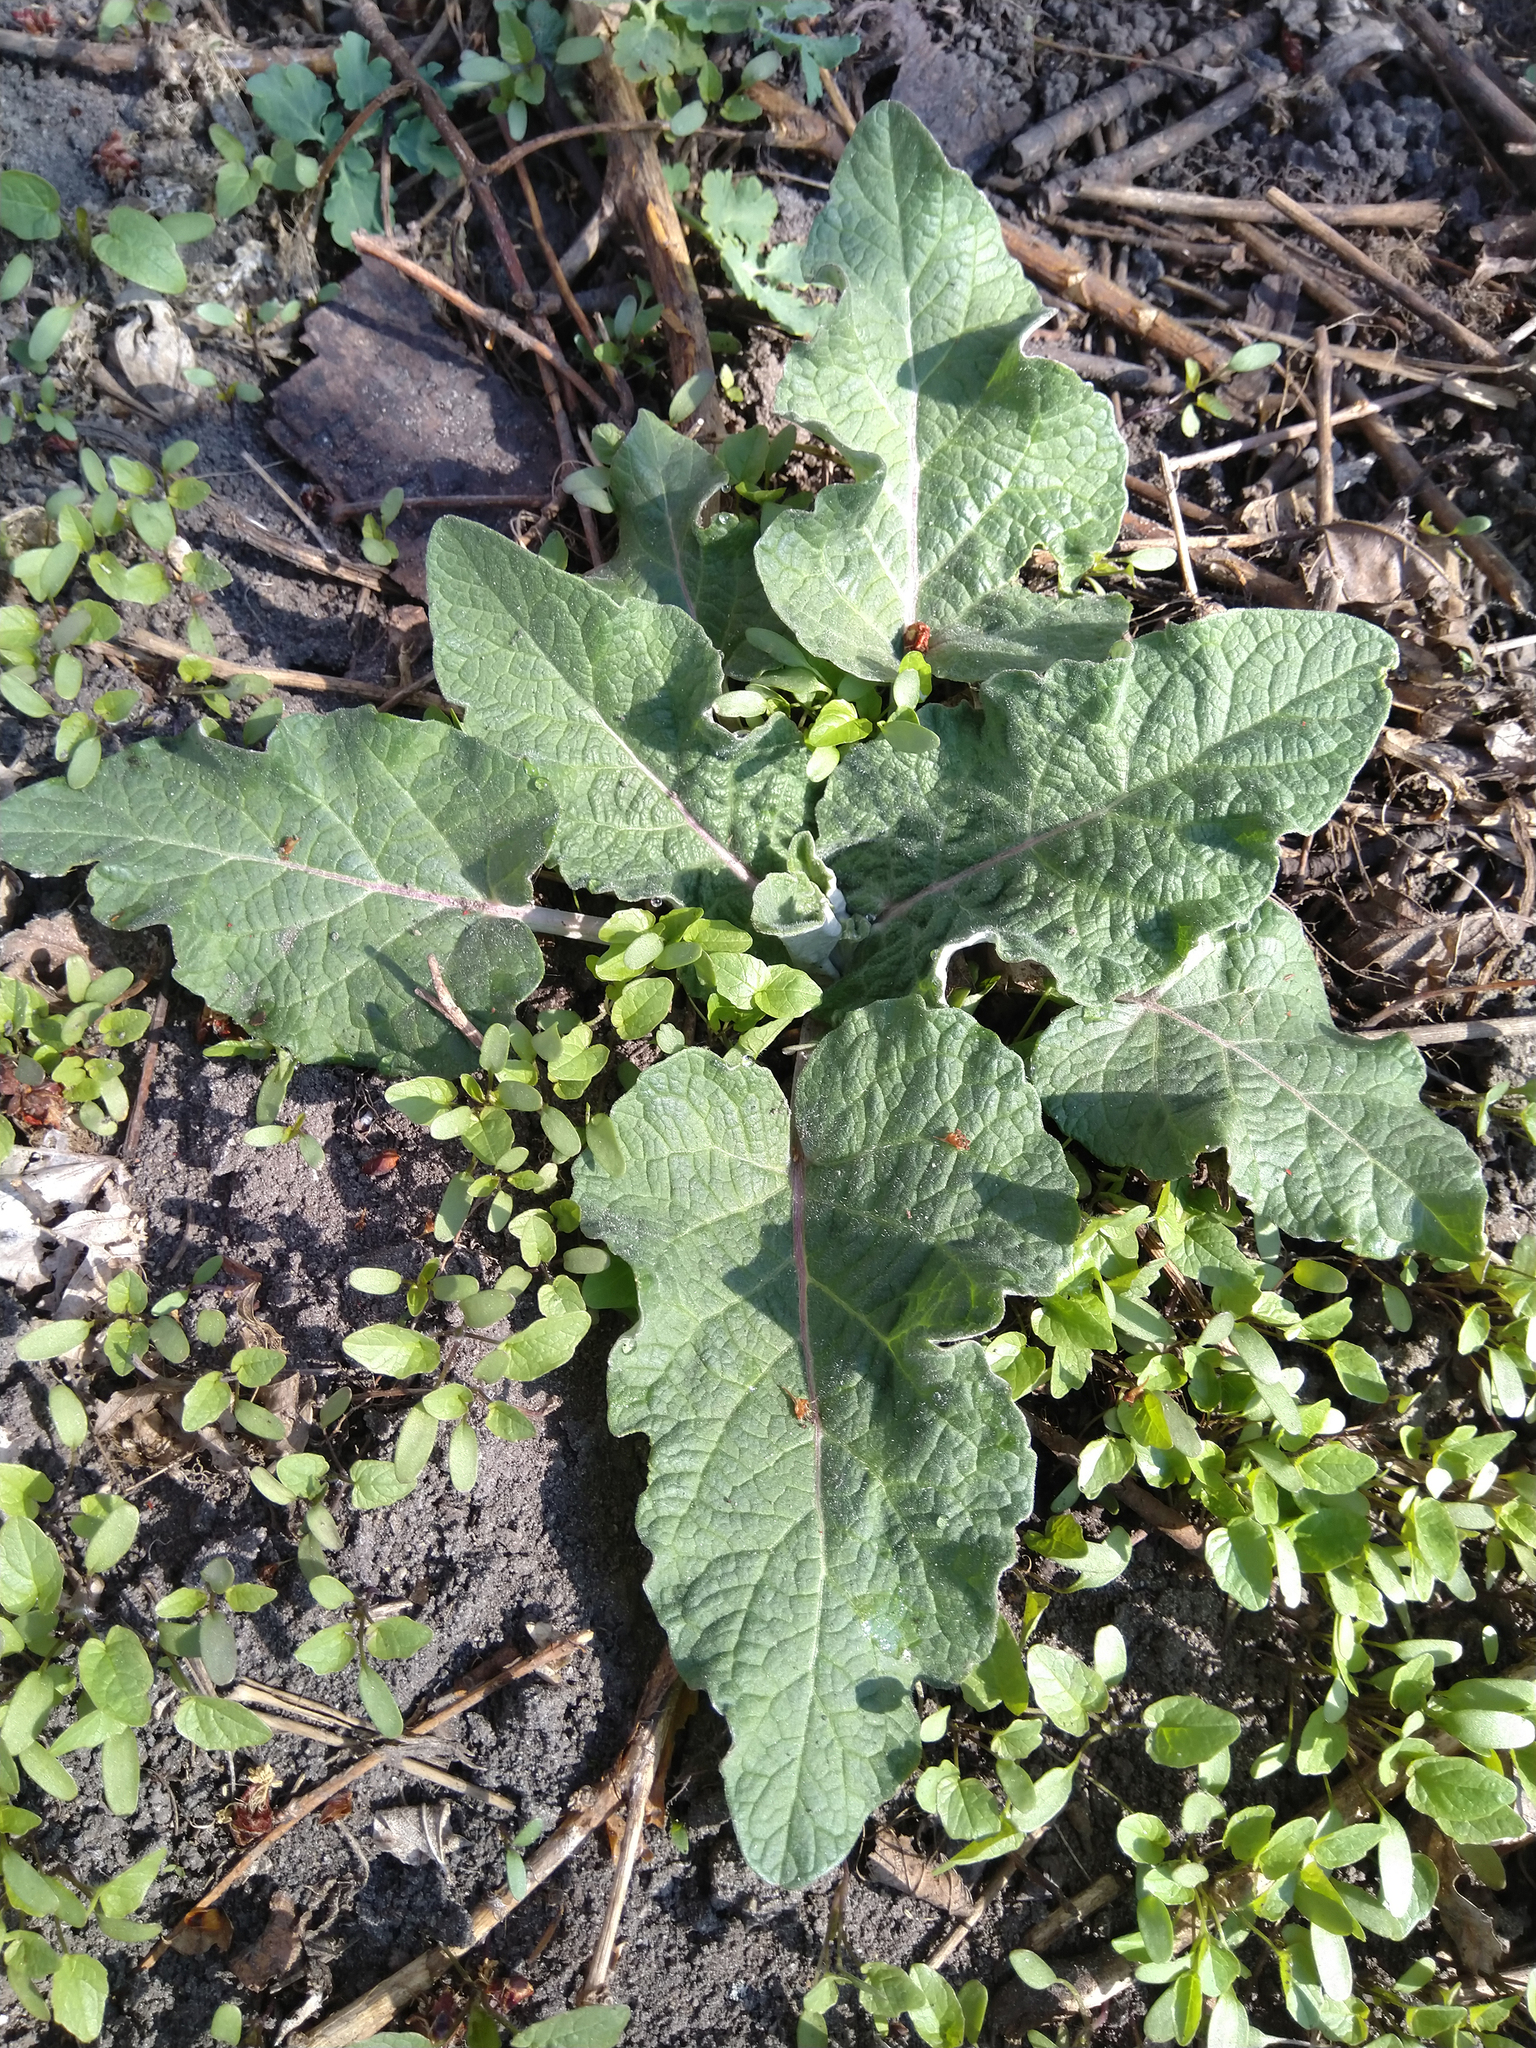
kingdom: Plantae
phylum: Tracheophyta
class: Magnoliopsida
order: Asterales
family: Asteraceae
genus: Arctium
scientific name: Arctium
